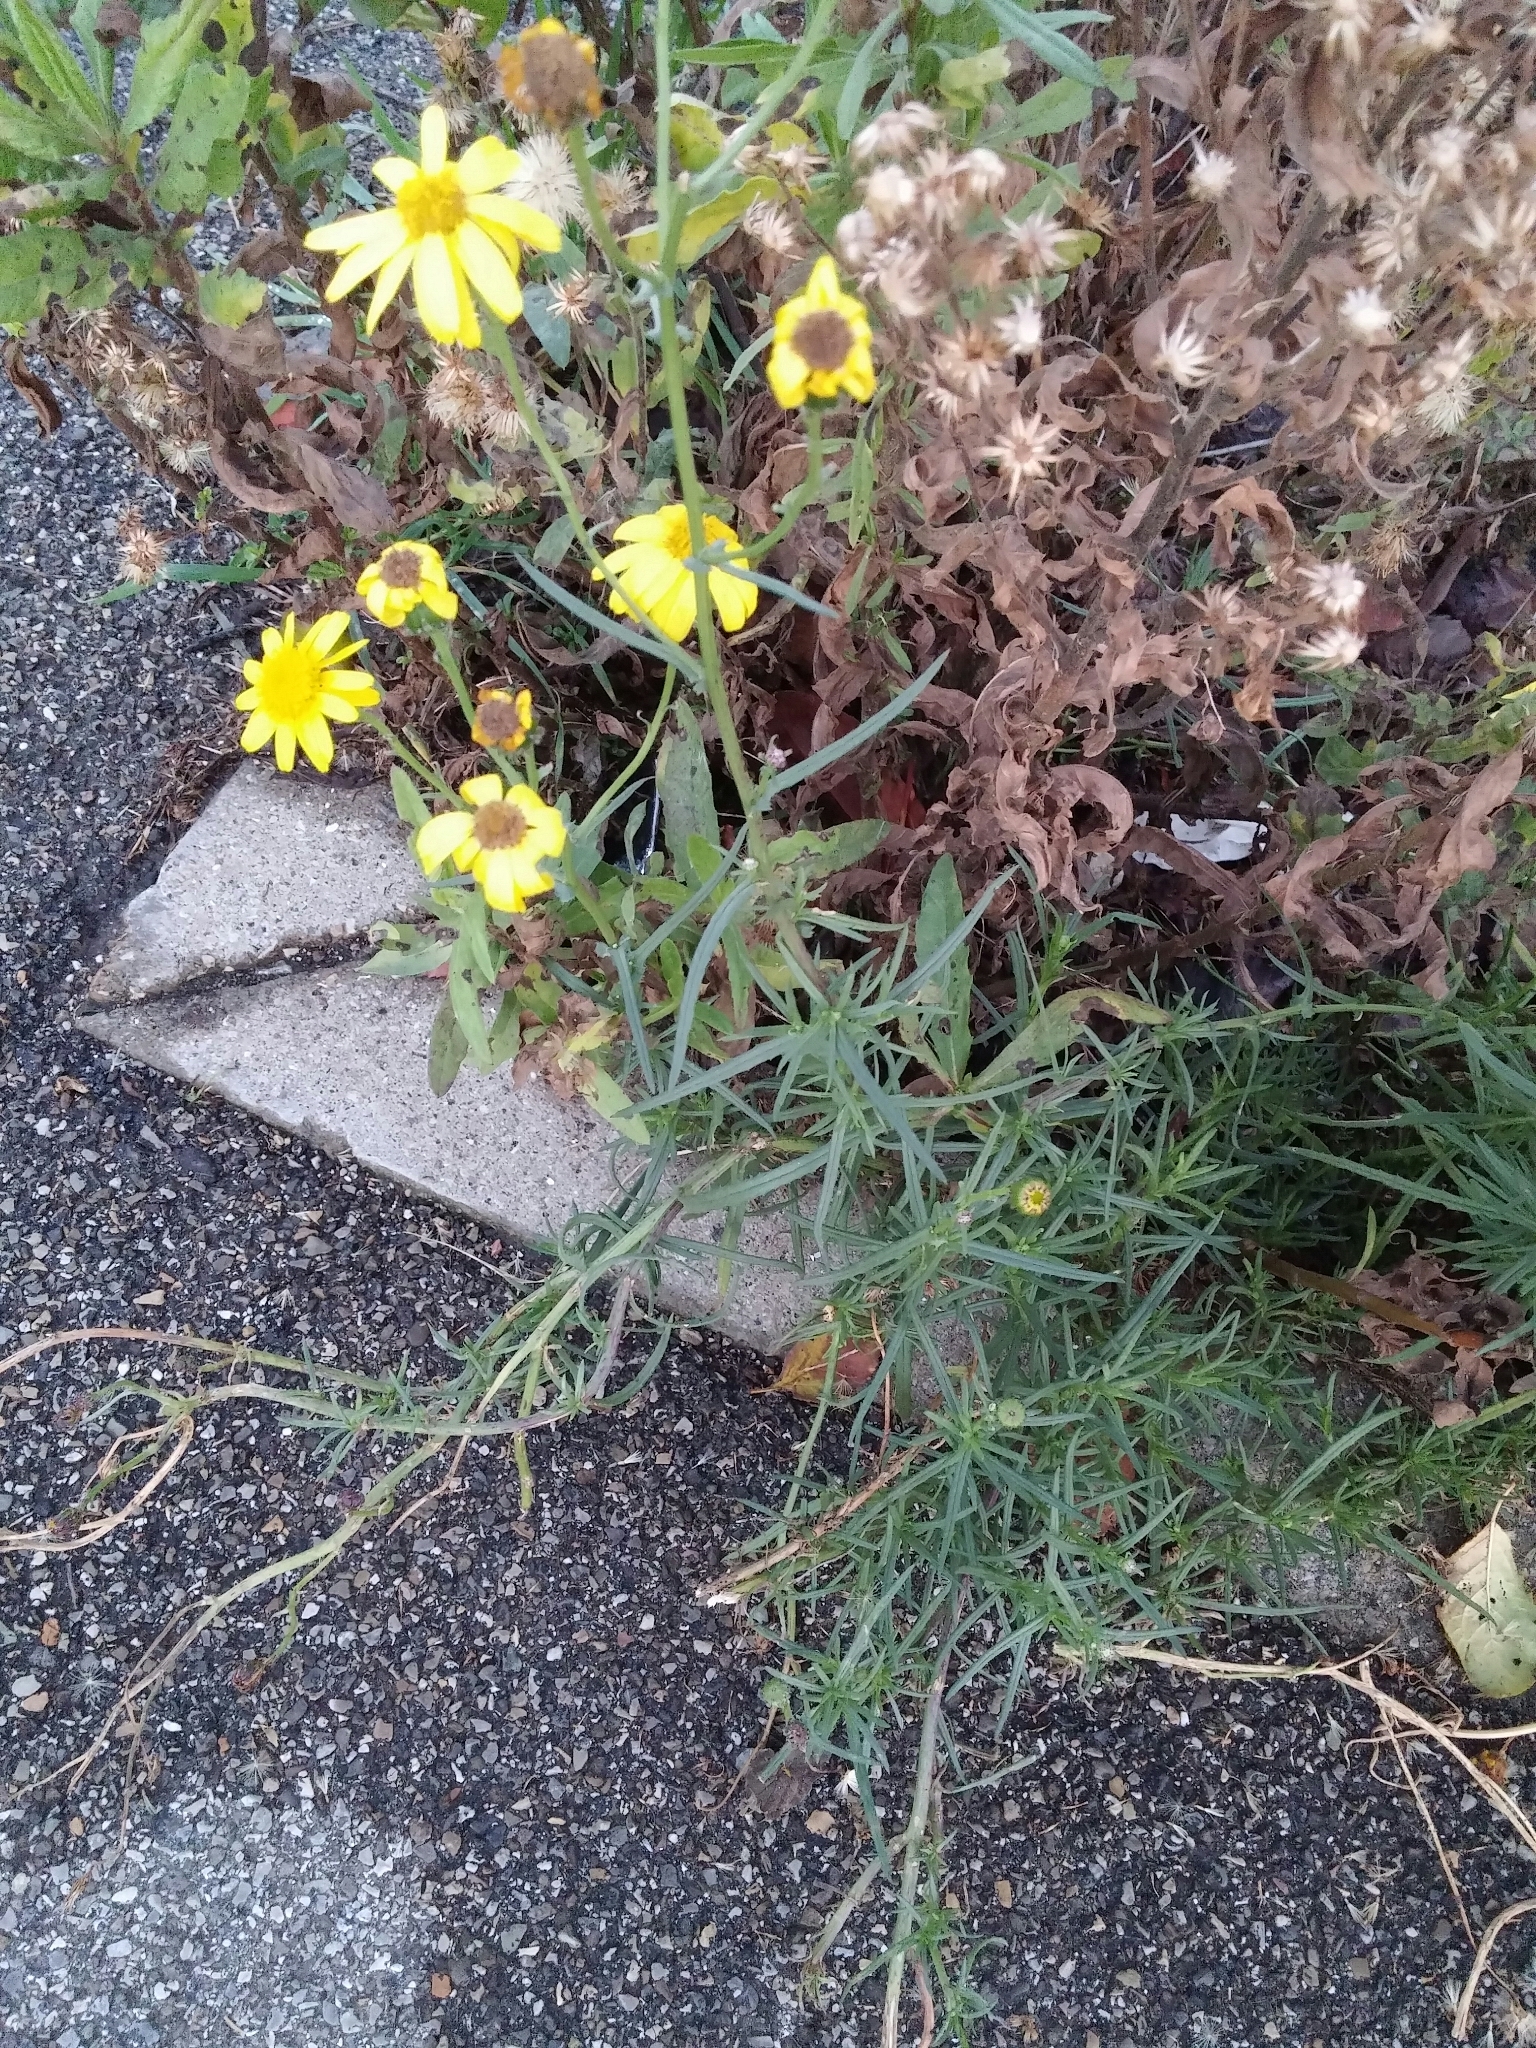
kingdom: Plantae
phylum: Tracheophyta
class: Magnoliopsida
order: Asterales
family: Asteraceae
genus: Senecio
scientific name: Senecio inaequidens
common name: Narrow-leaved ragwort
